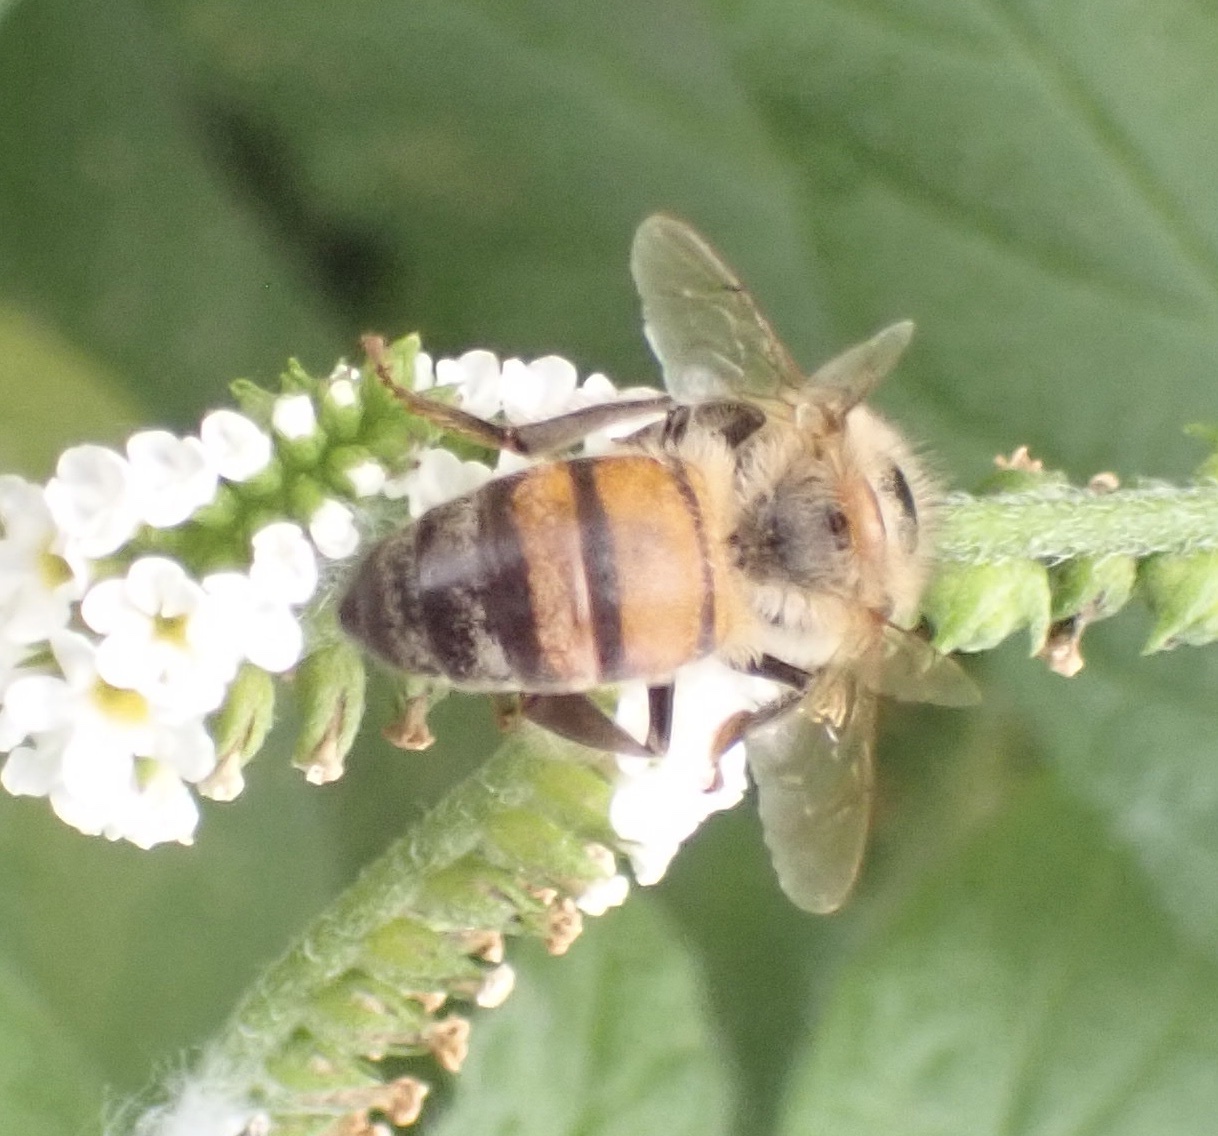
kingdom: Animalia
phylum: Arthropoda
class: Insecta
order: Hymenoptera
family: Apidae
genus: Apis
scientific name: Apis mellifera
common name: Honey bee
